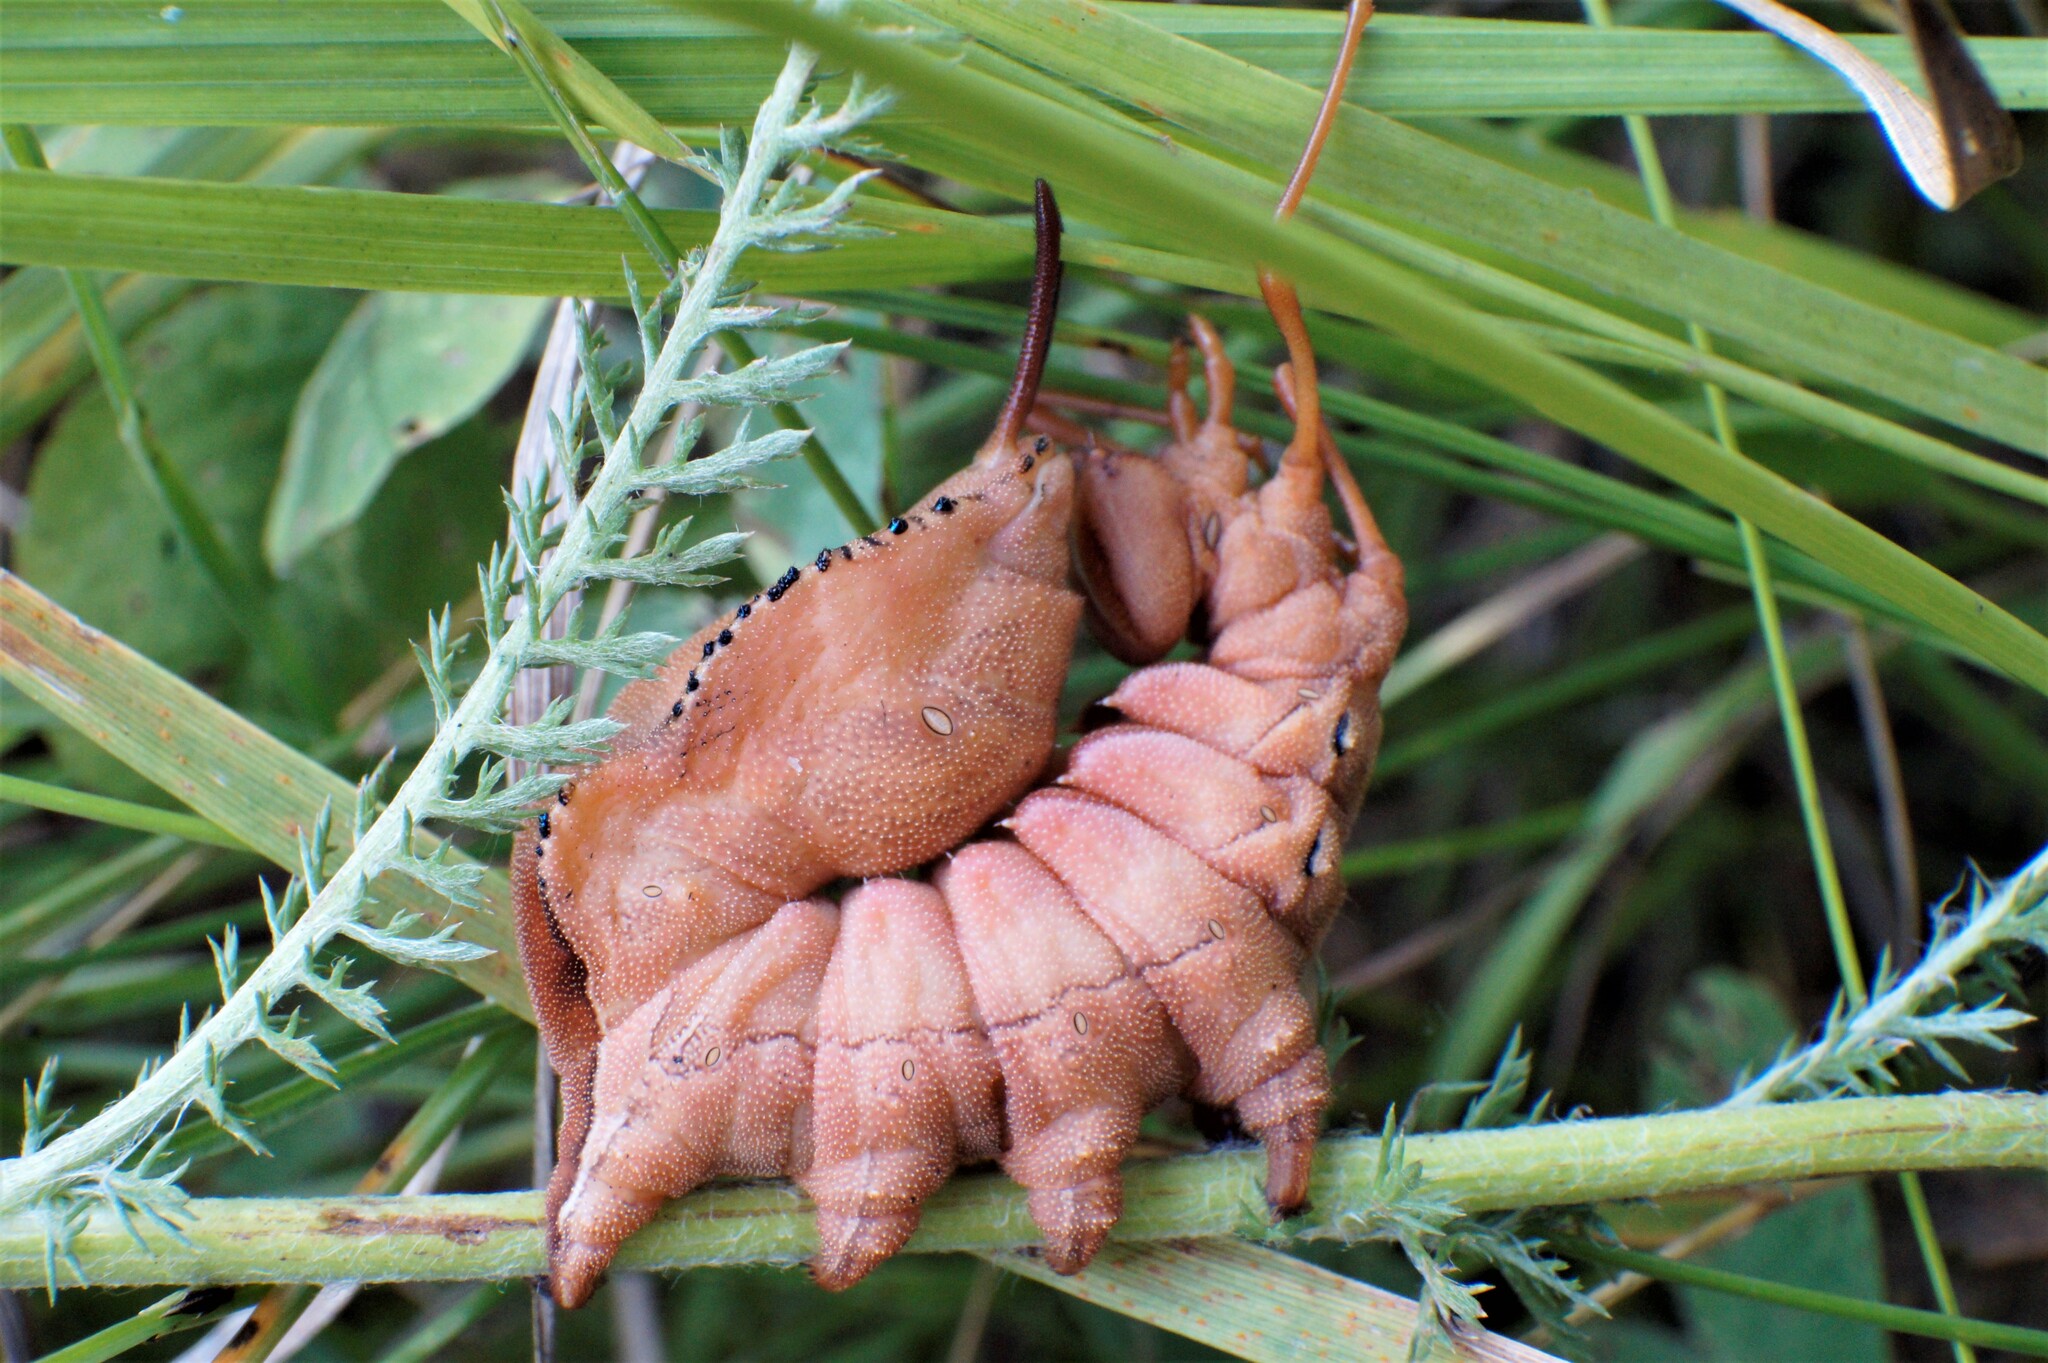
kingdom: Animalia
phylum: Arthropoda
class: Insecta
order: Lepidoptera
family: Notodontidae
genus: Stauropus
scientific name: Stauropus fagi
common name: Lobster moth
